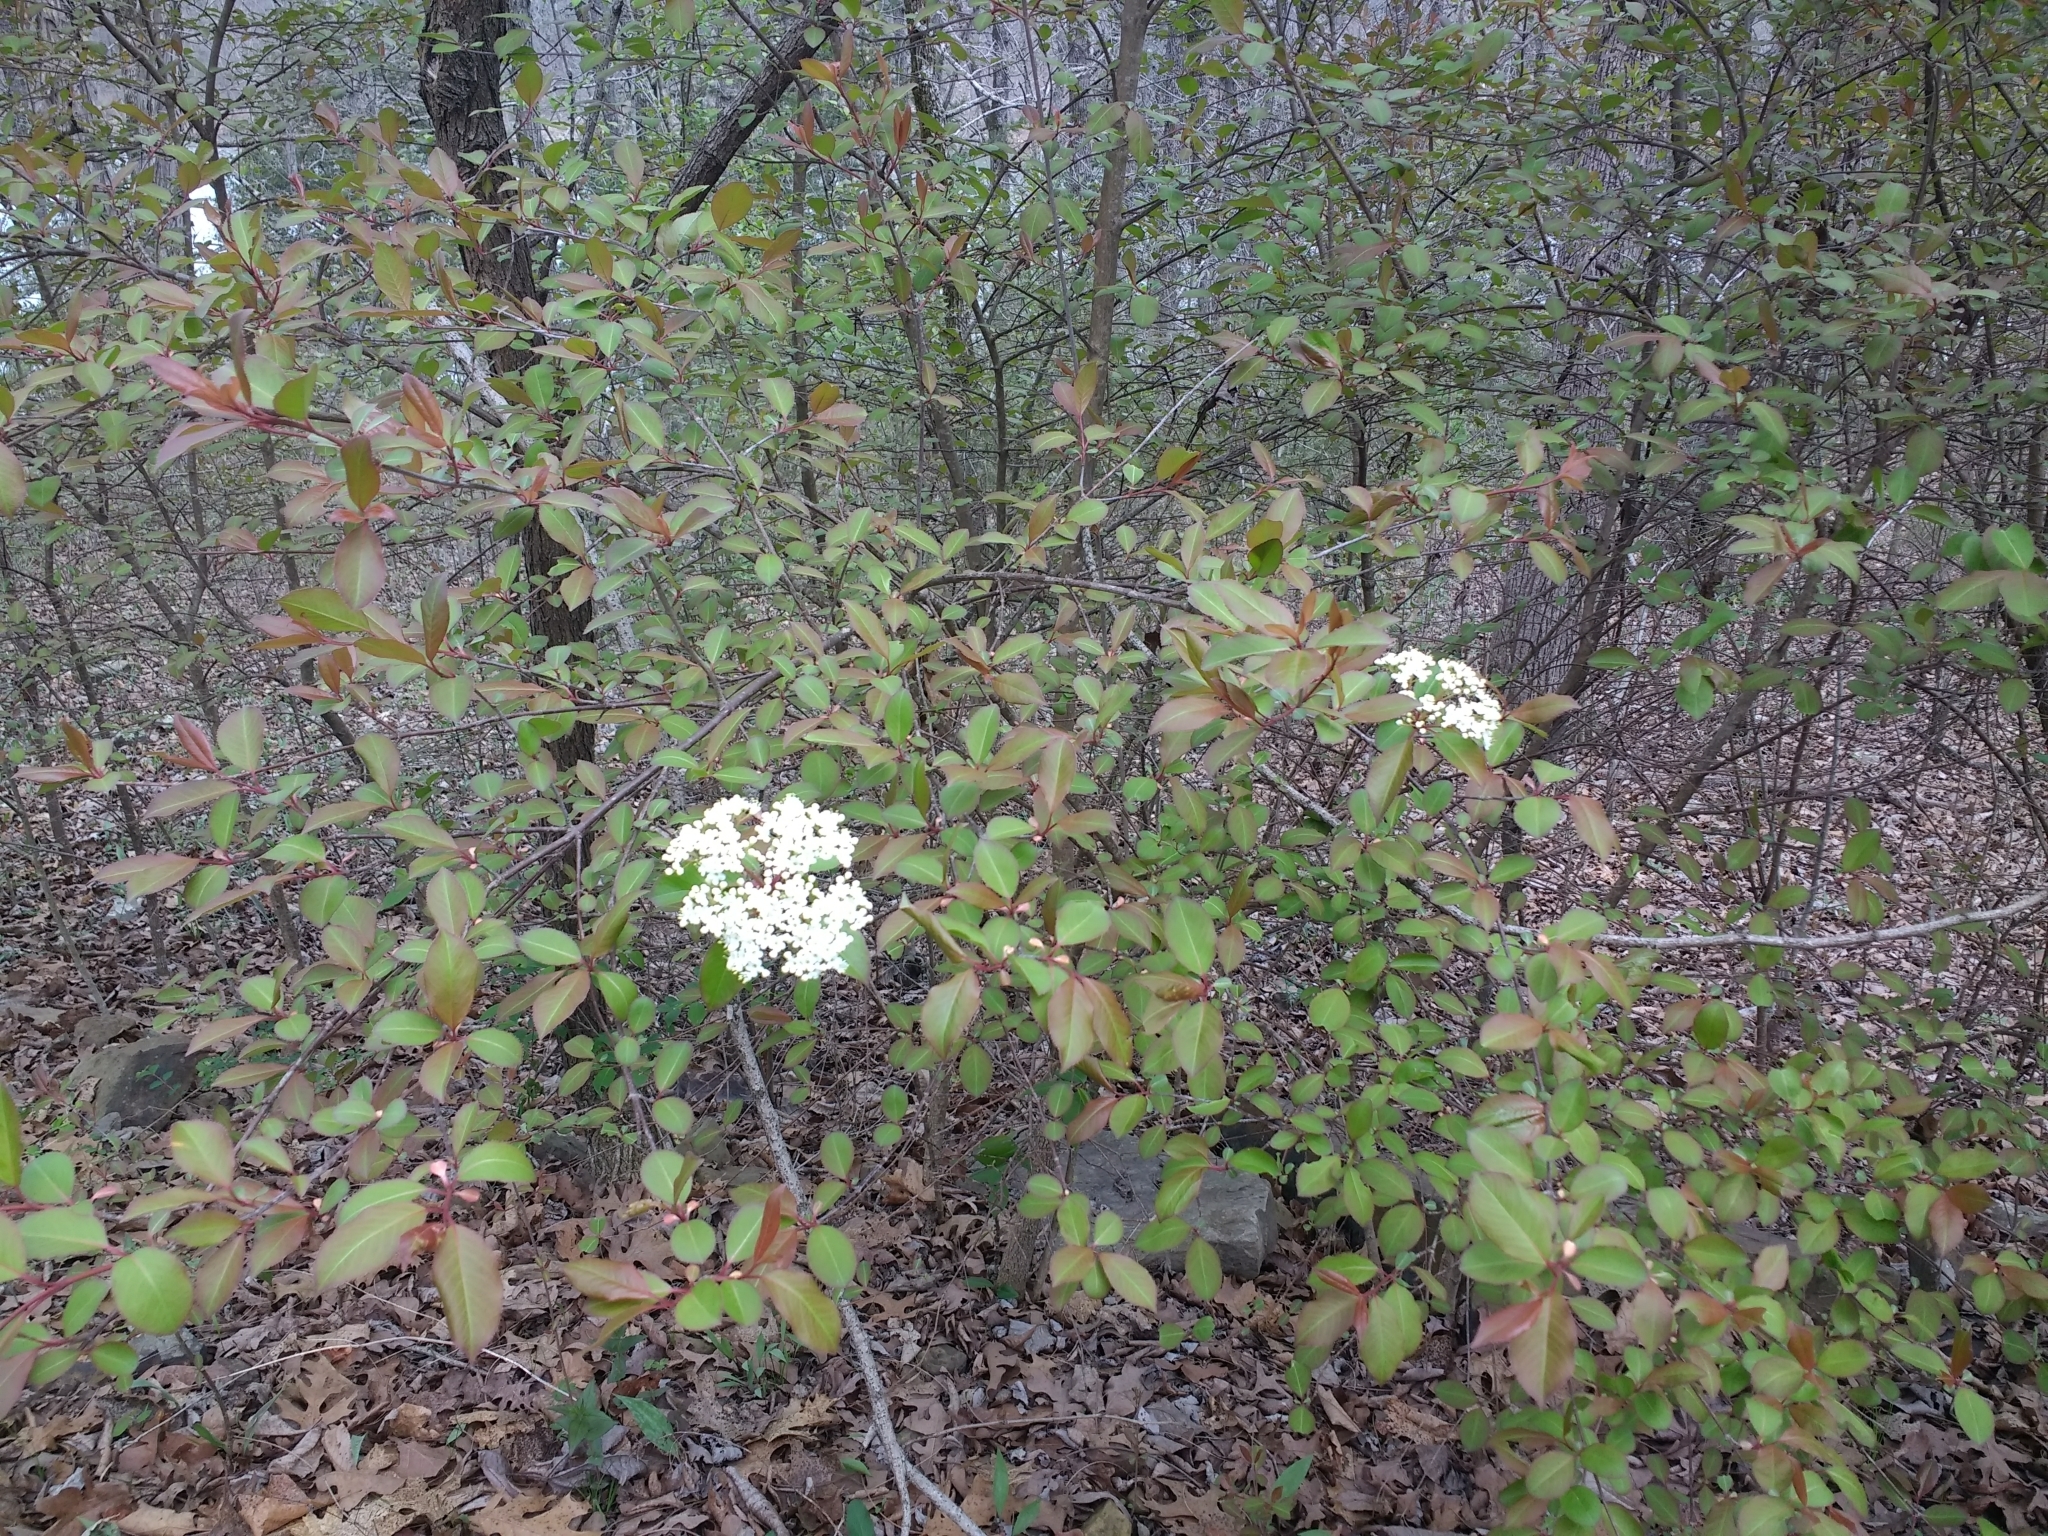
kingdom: Plantae
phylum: Tracheophyta
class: Magnoliopsida
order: Dipsacales
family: Viburnaceae
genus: Viburnum
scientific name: Viburnum prunifolium
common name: Black haw
